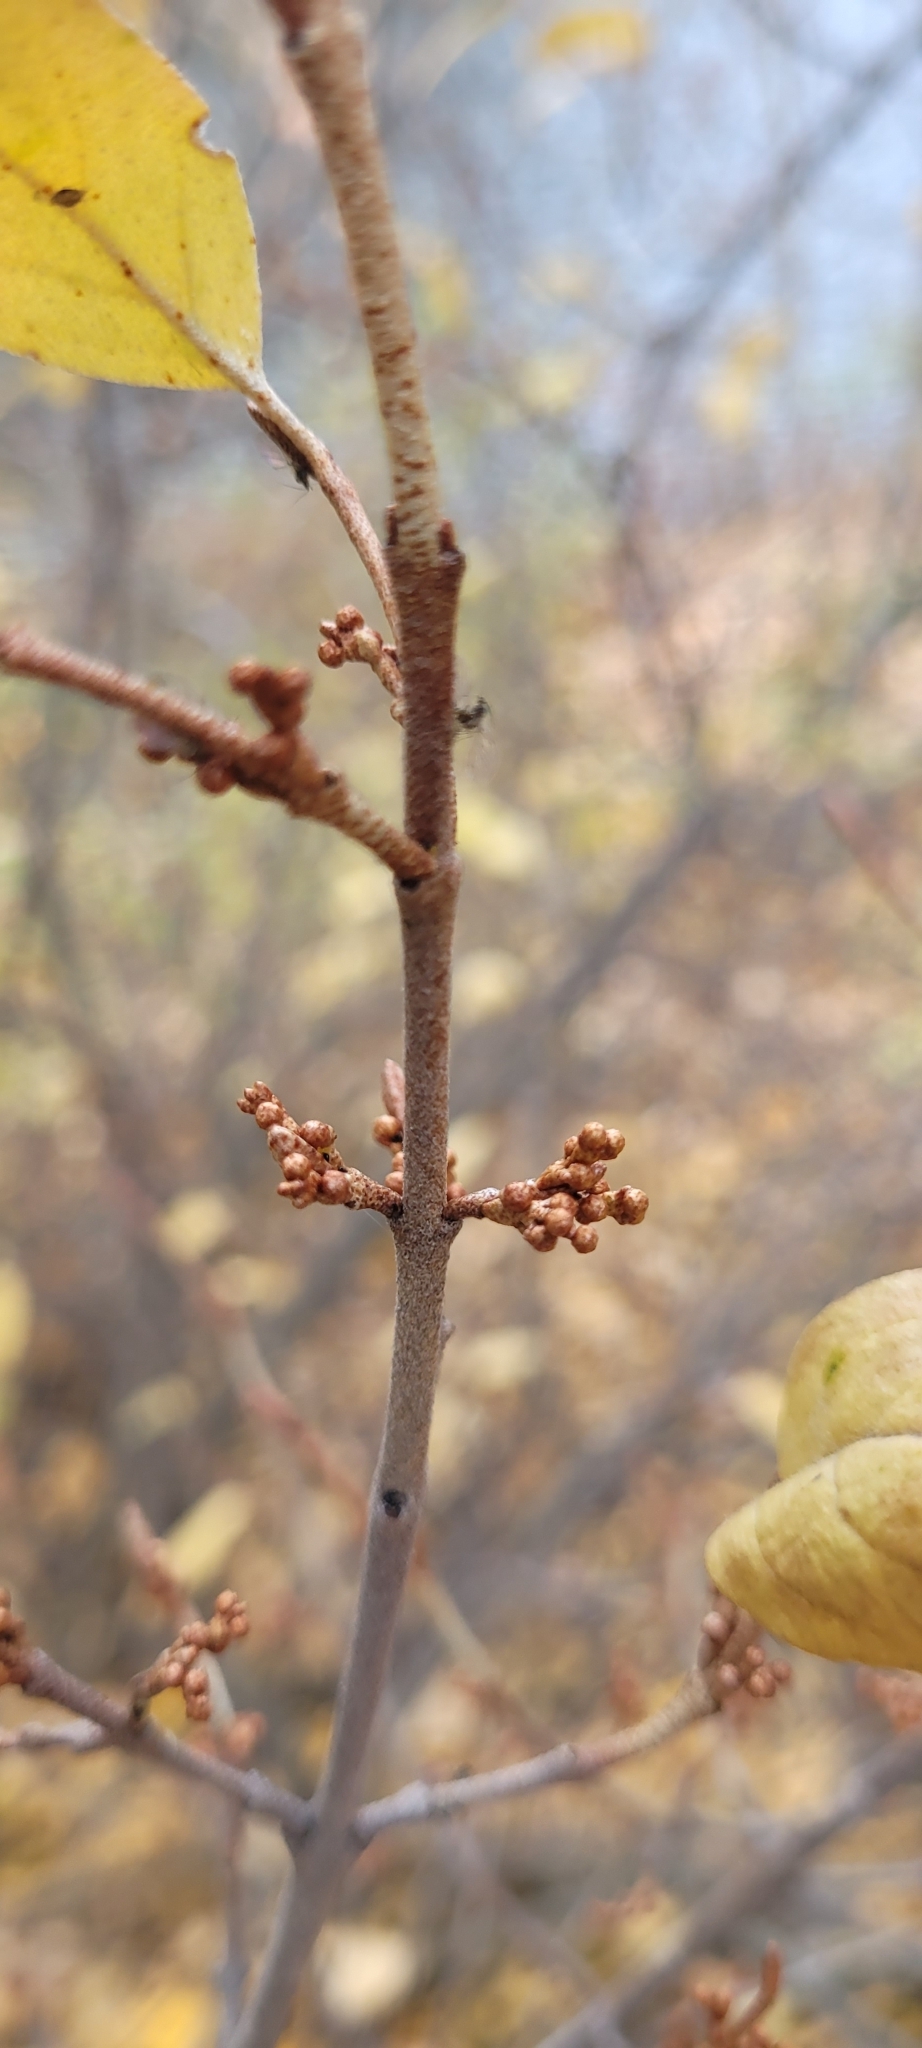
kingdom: Plantae
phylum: Tracheophyta
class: Magnoliopsida
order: Rosales
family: Elaeagnaceae
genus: Shepherdia
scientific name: Shepherdia canadensis
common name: Soapberry
